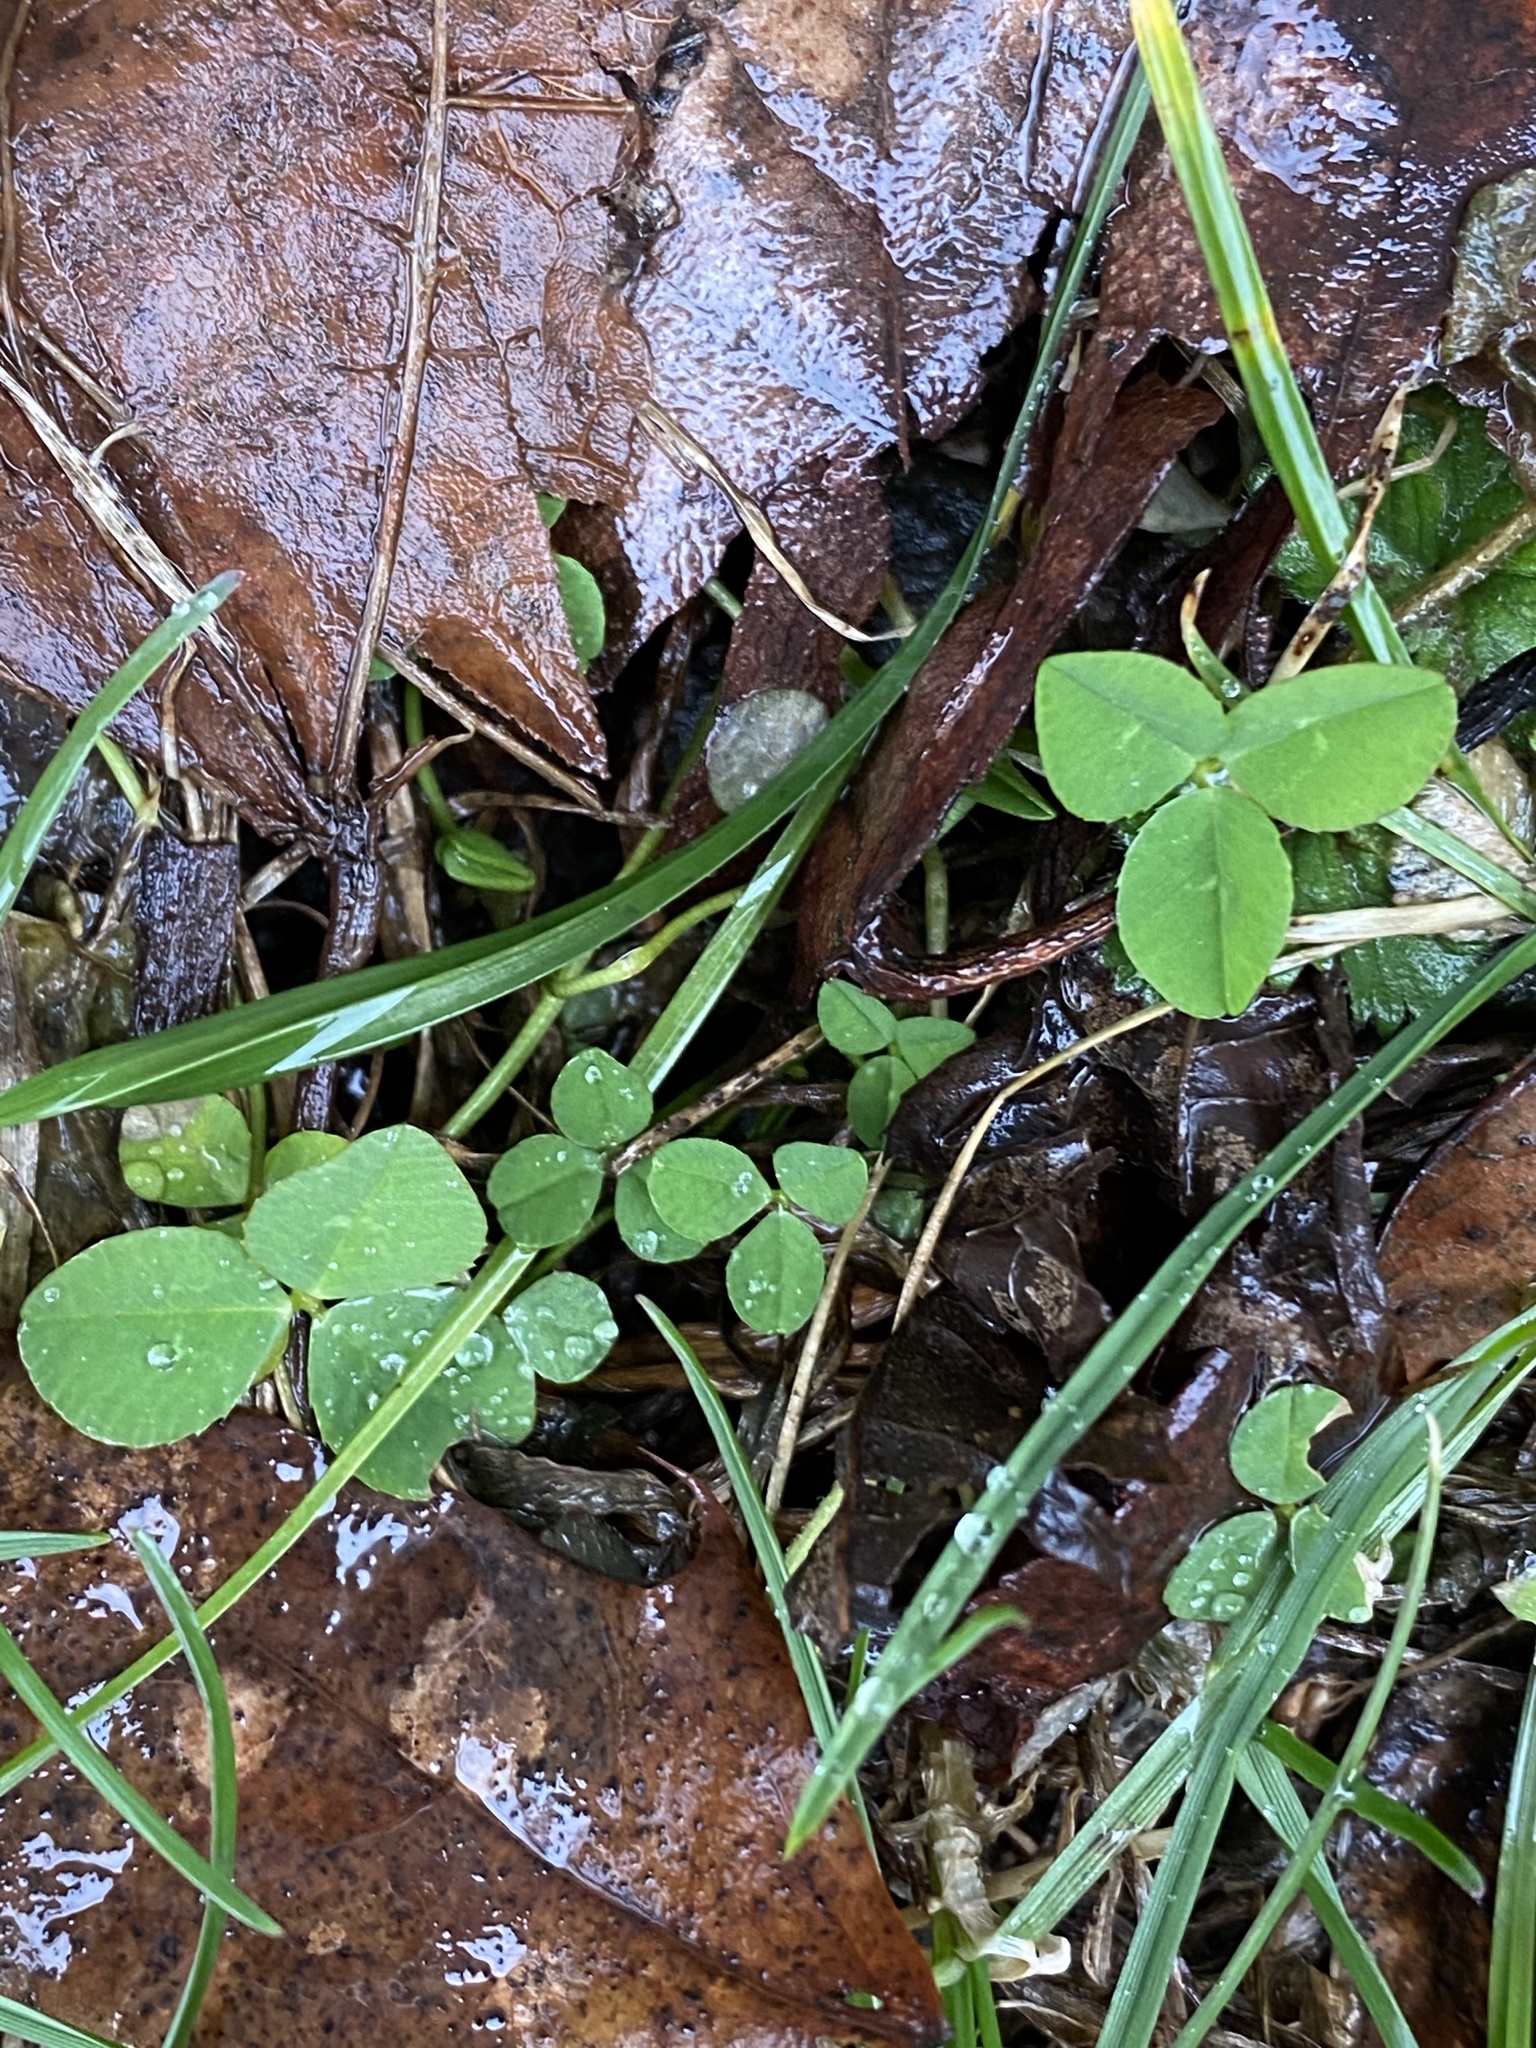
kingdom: Plantae
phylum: Tracheophyta
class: Magnoliopsida
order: Fabales
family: Fabaceae
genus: Trifolium
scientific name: Trifolium repens
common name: White clover
